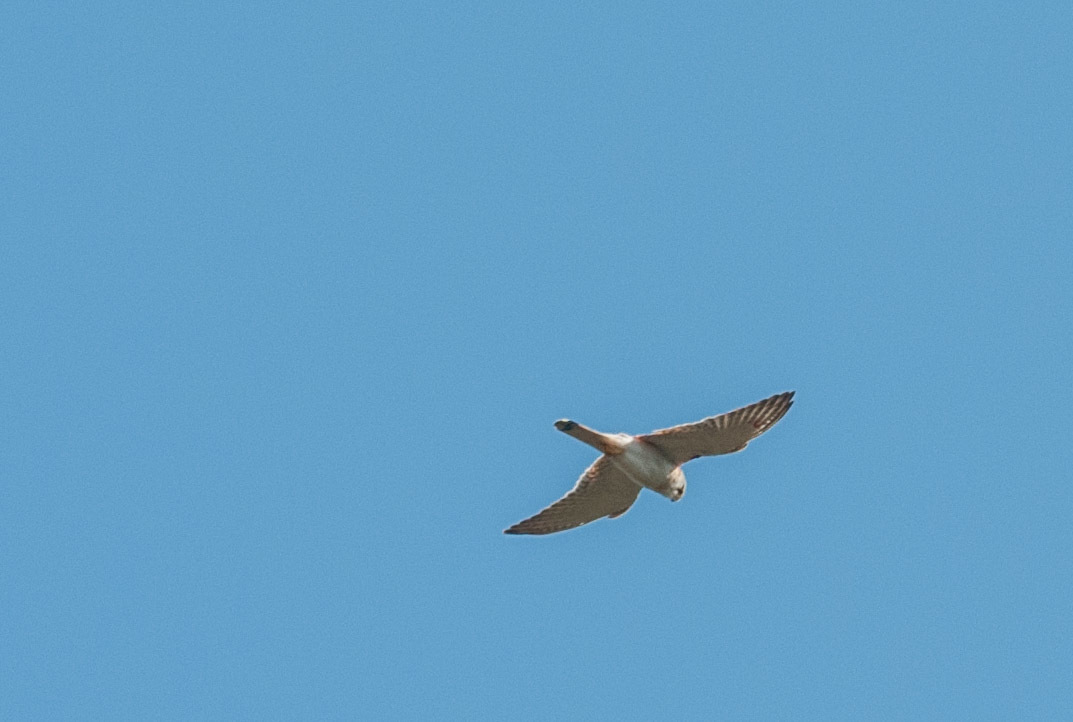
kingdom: Animalia
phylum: Chordata
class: Aves
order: Falconiformes
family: Falconidae
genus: Falco
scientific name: Falco cenchroides
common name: Nankeen kestrel
